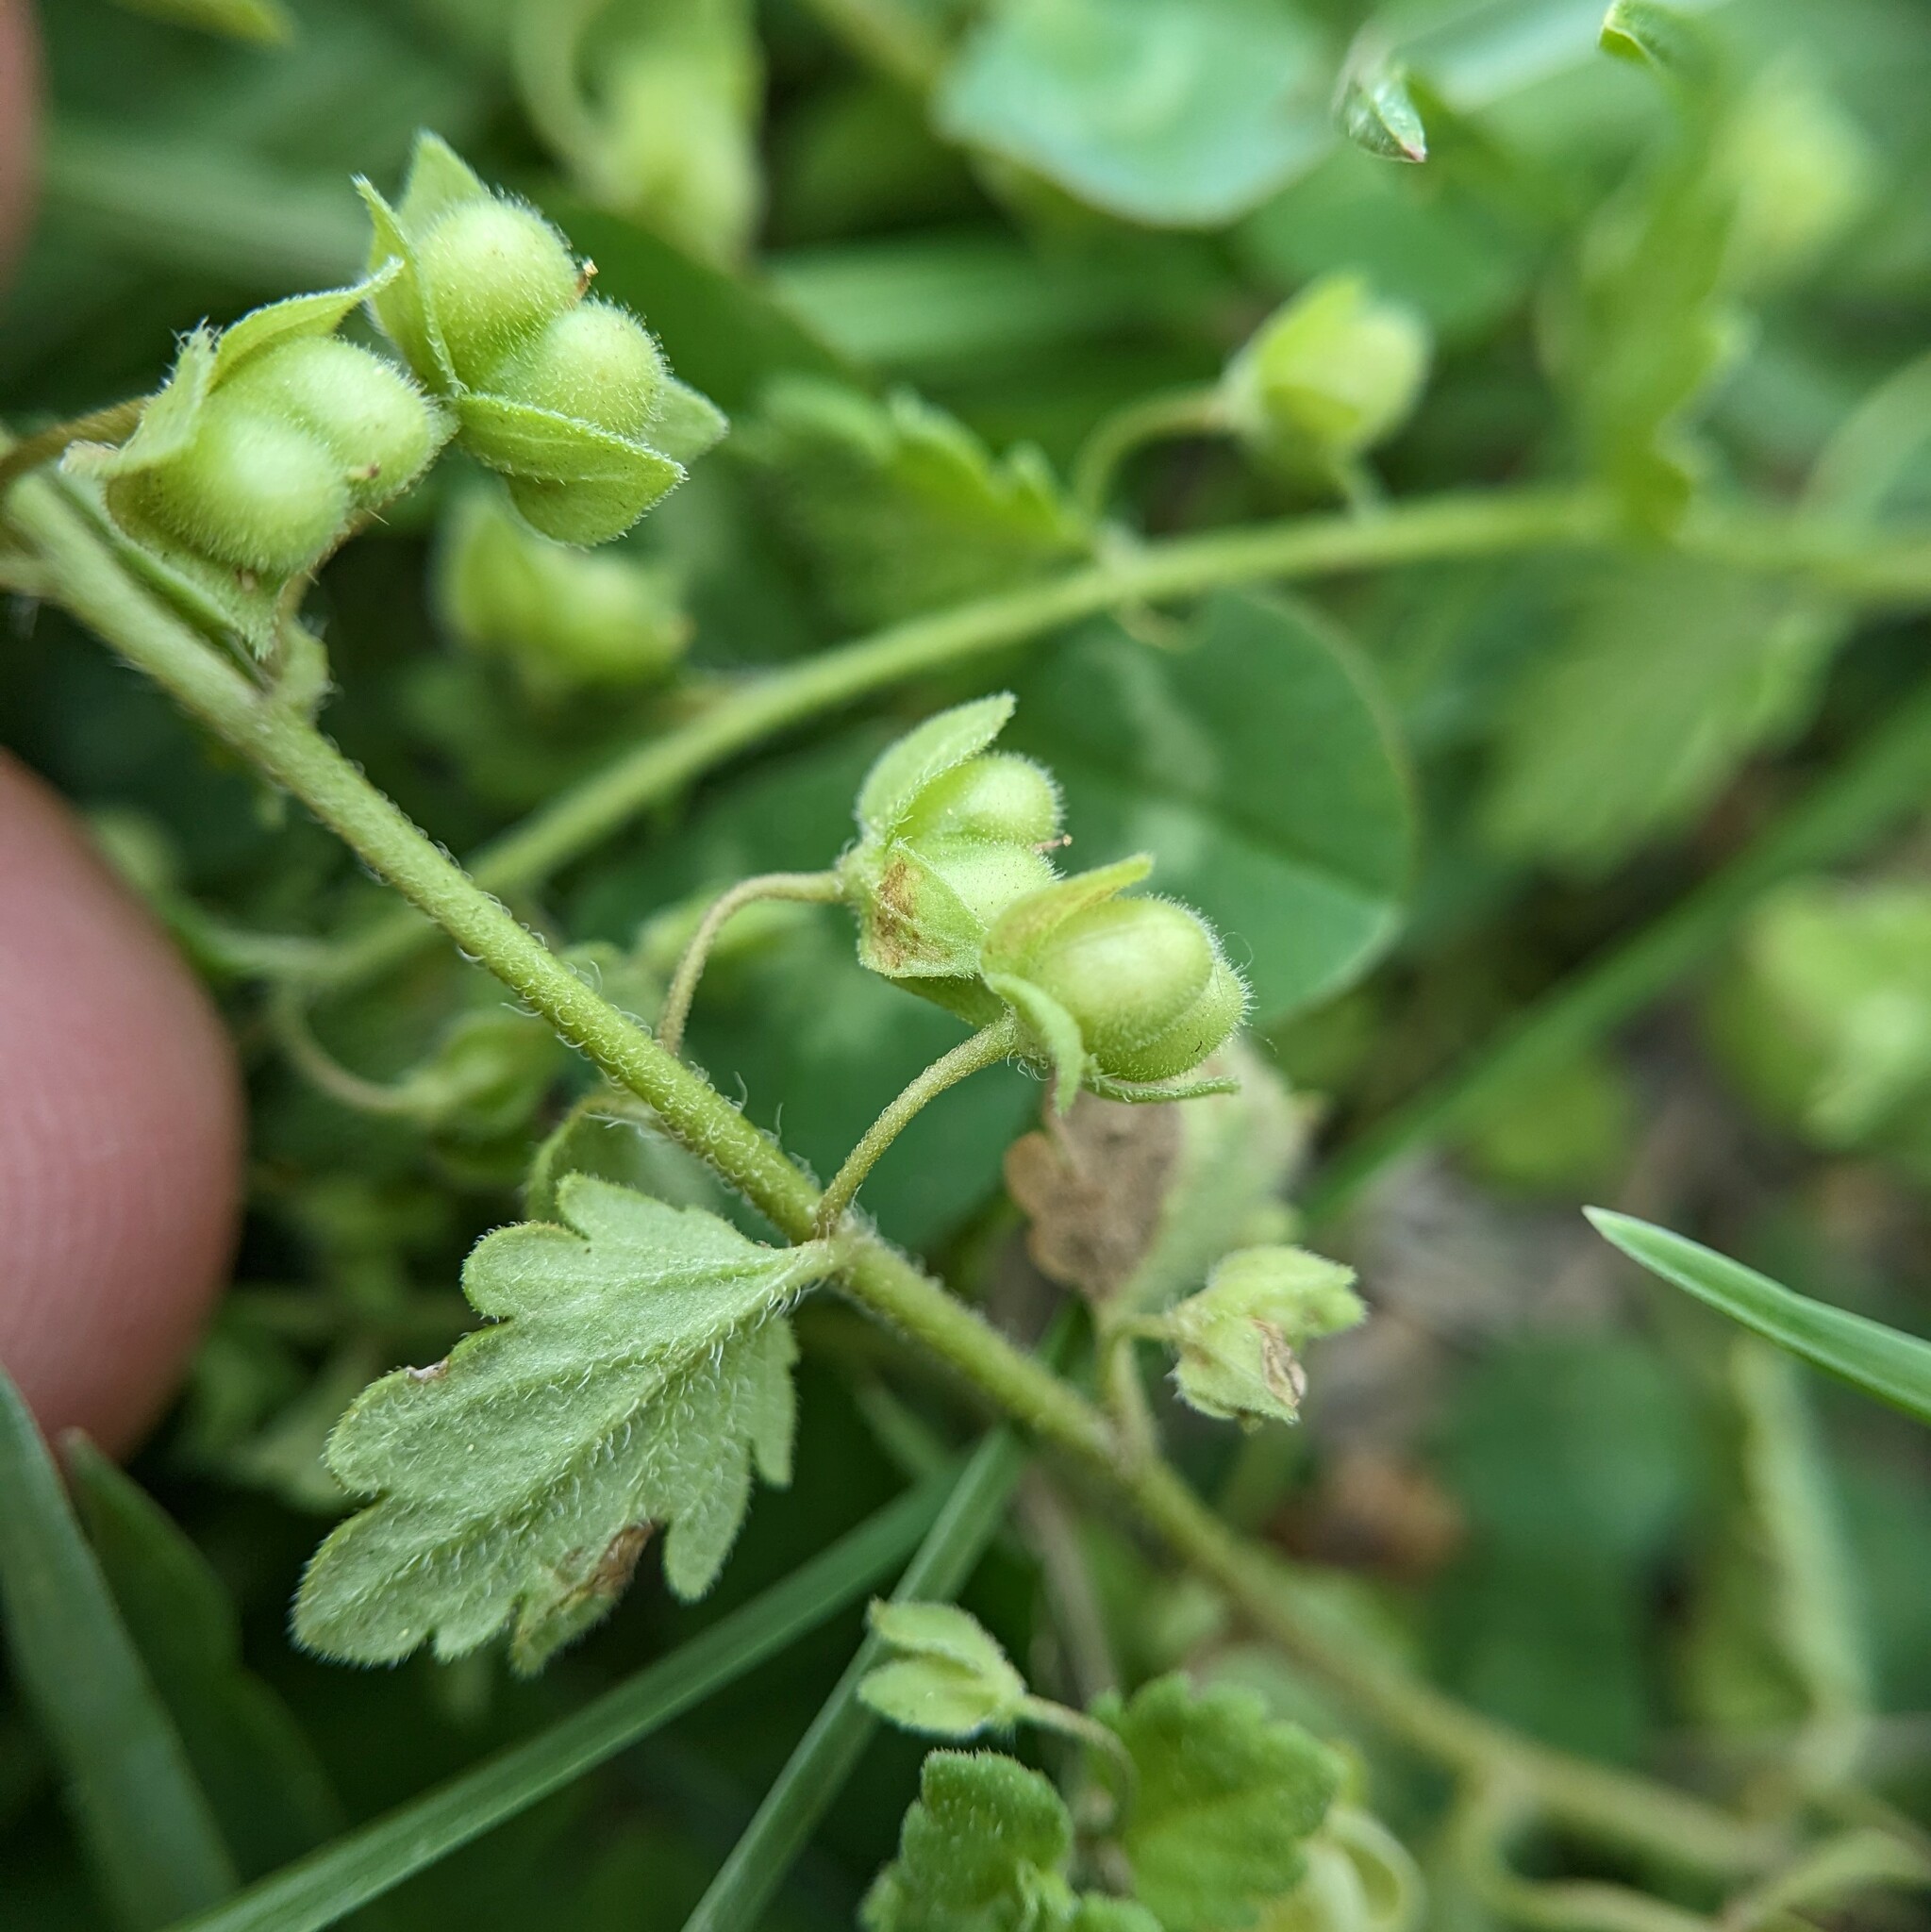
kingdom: Plantae
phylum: Tracheophyta
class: Magnoliopsida
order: Lamiales
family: Plantaginaceae
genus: Veronica
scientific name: Veronica polita
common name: Grey field-speedwell
